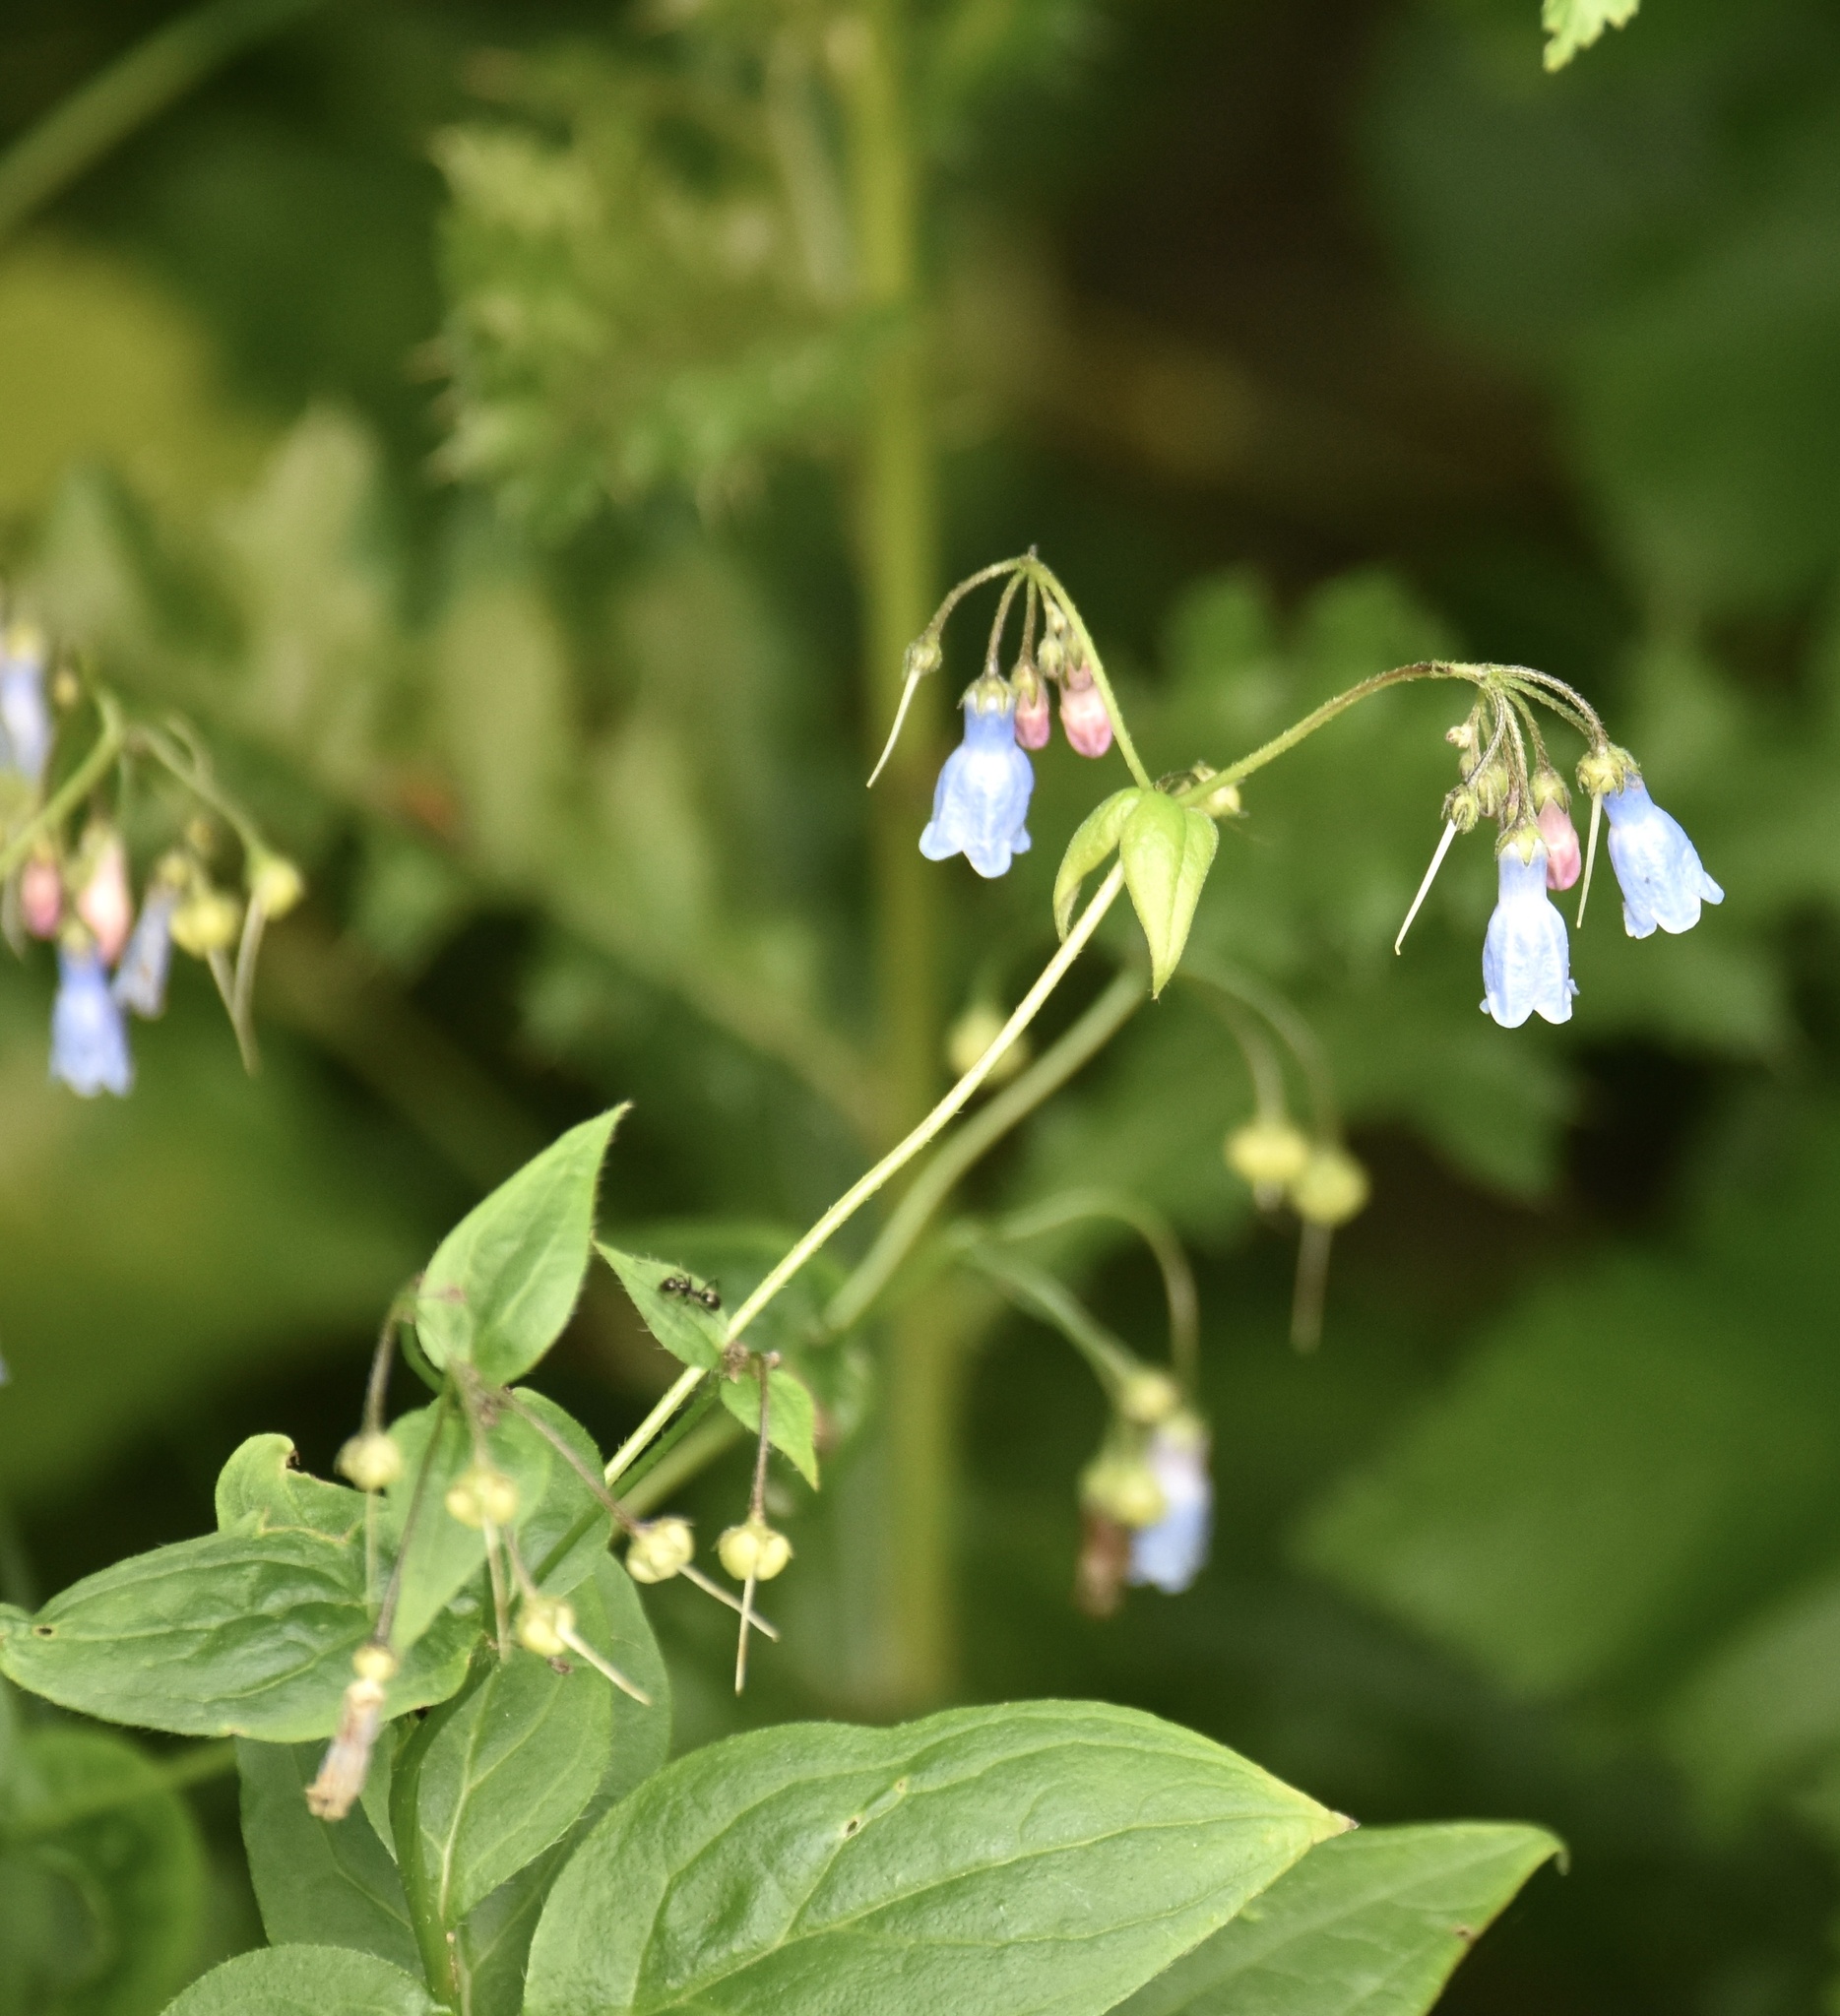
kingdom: Plantae
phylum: Tracheophyta
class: Magnoliopsida
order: Boraginales
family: Boraginaceae
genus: Mertensia
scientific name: Mertensia paniculata
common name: Panicled bluebells
